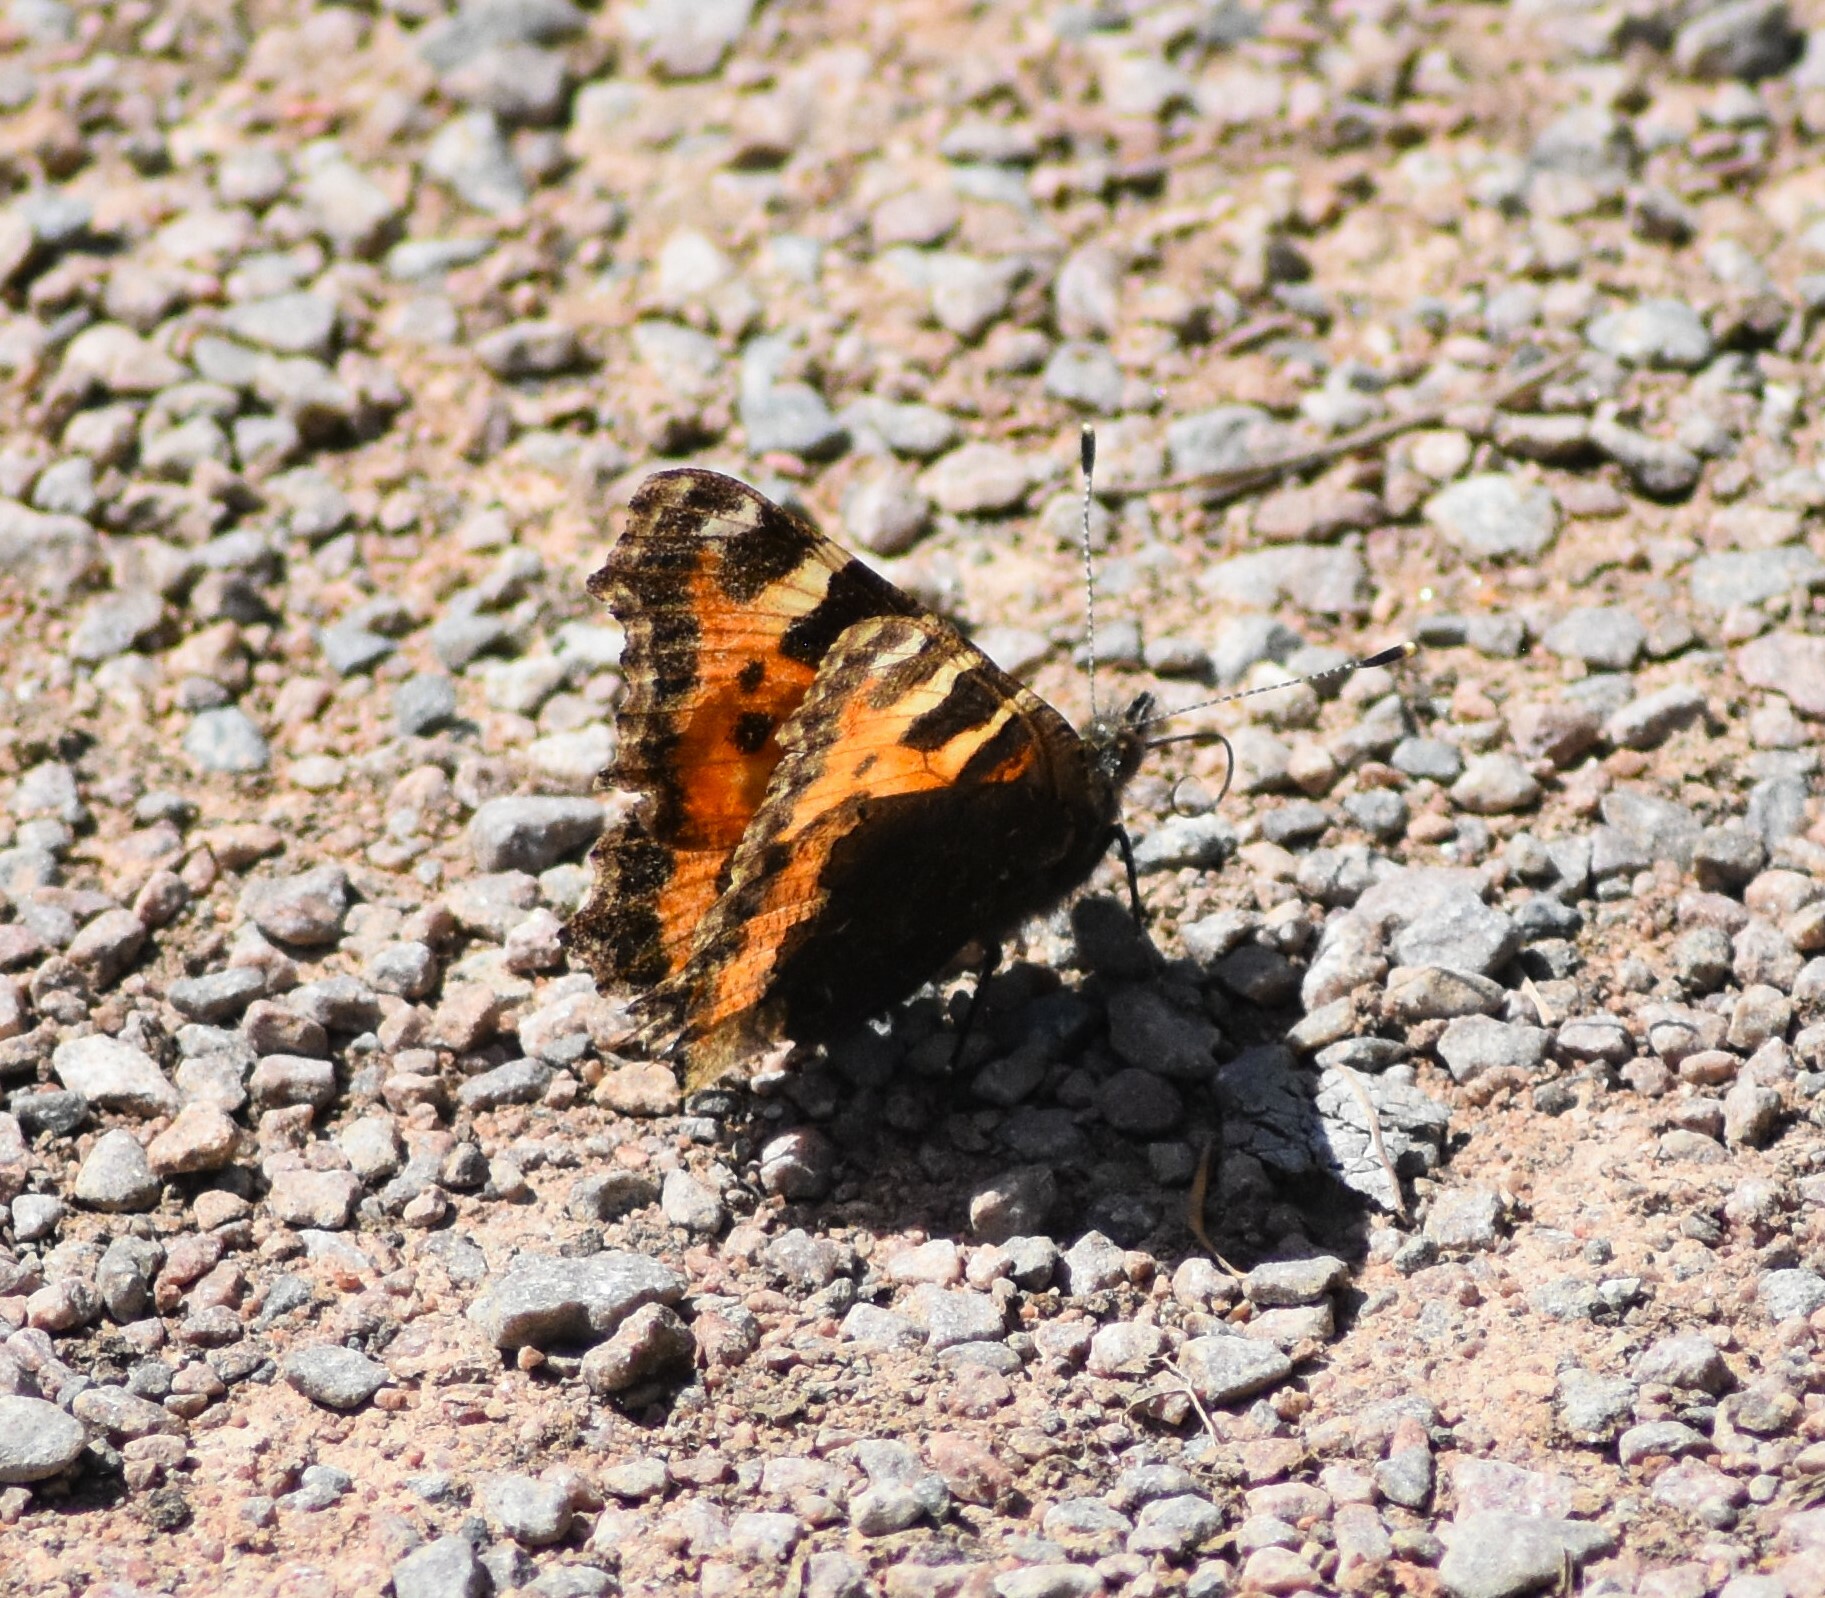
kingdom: Animalia
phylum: Arthropoda
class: Insecta
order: Lepidoptera
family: Nymphalidae
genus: Aglais
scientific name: Aglais urticae
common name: Small tortoiseshell
